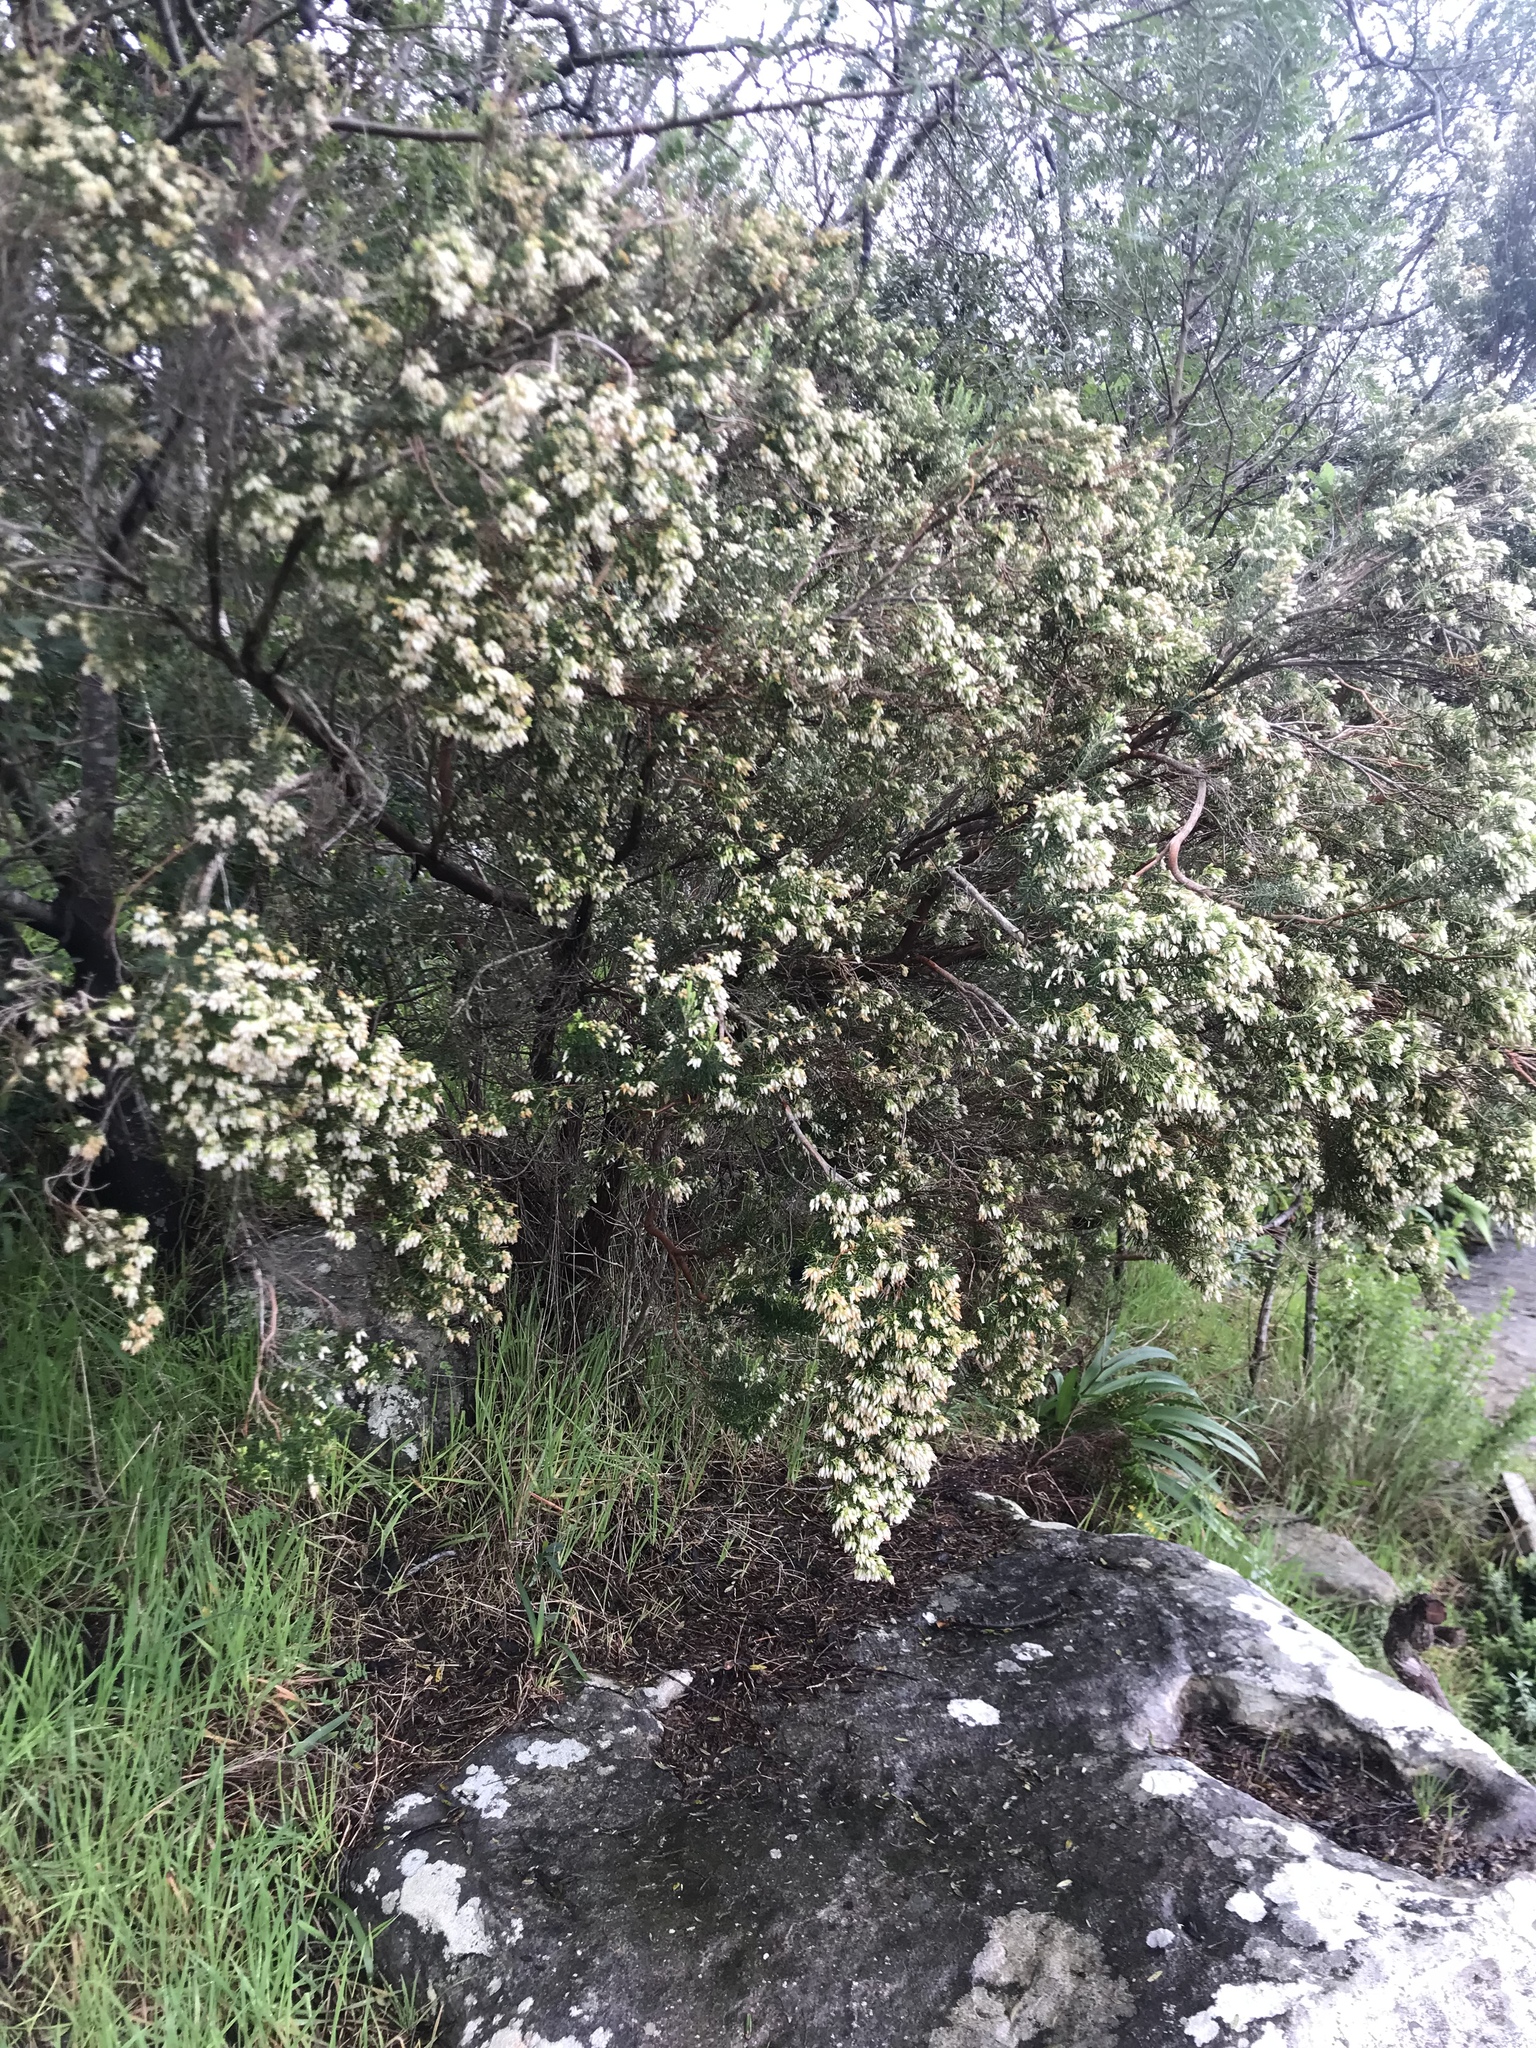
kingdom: Plantae
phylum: Tracheophyta
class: Magnoliopsida
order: Ericales
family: Ericaceae
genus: Erica
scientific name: Erica caffra
